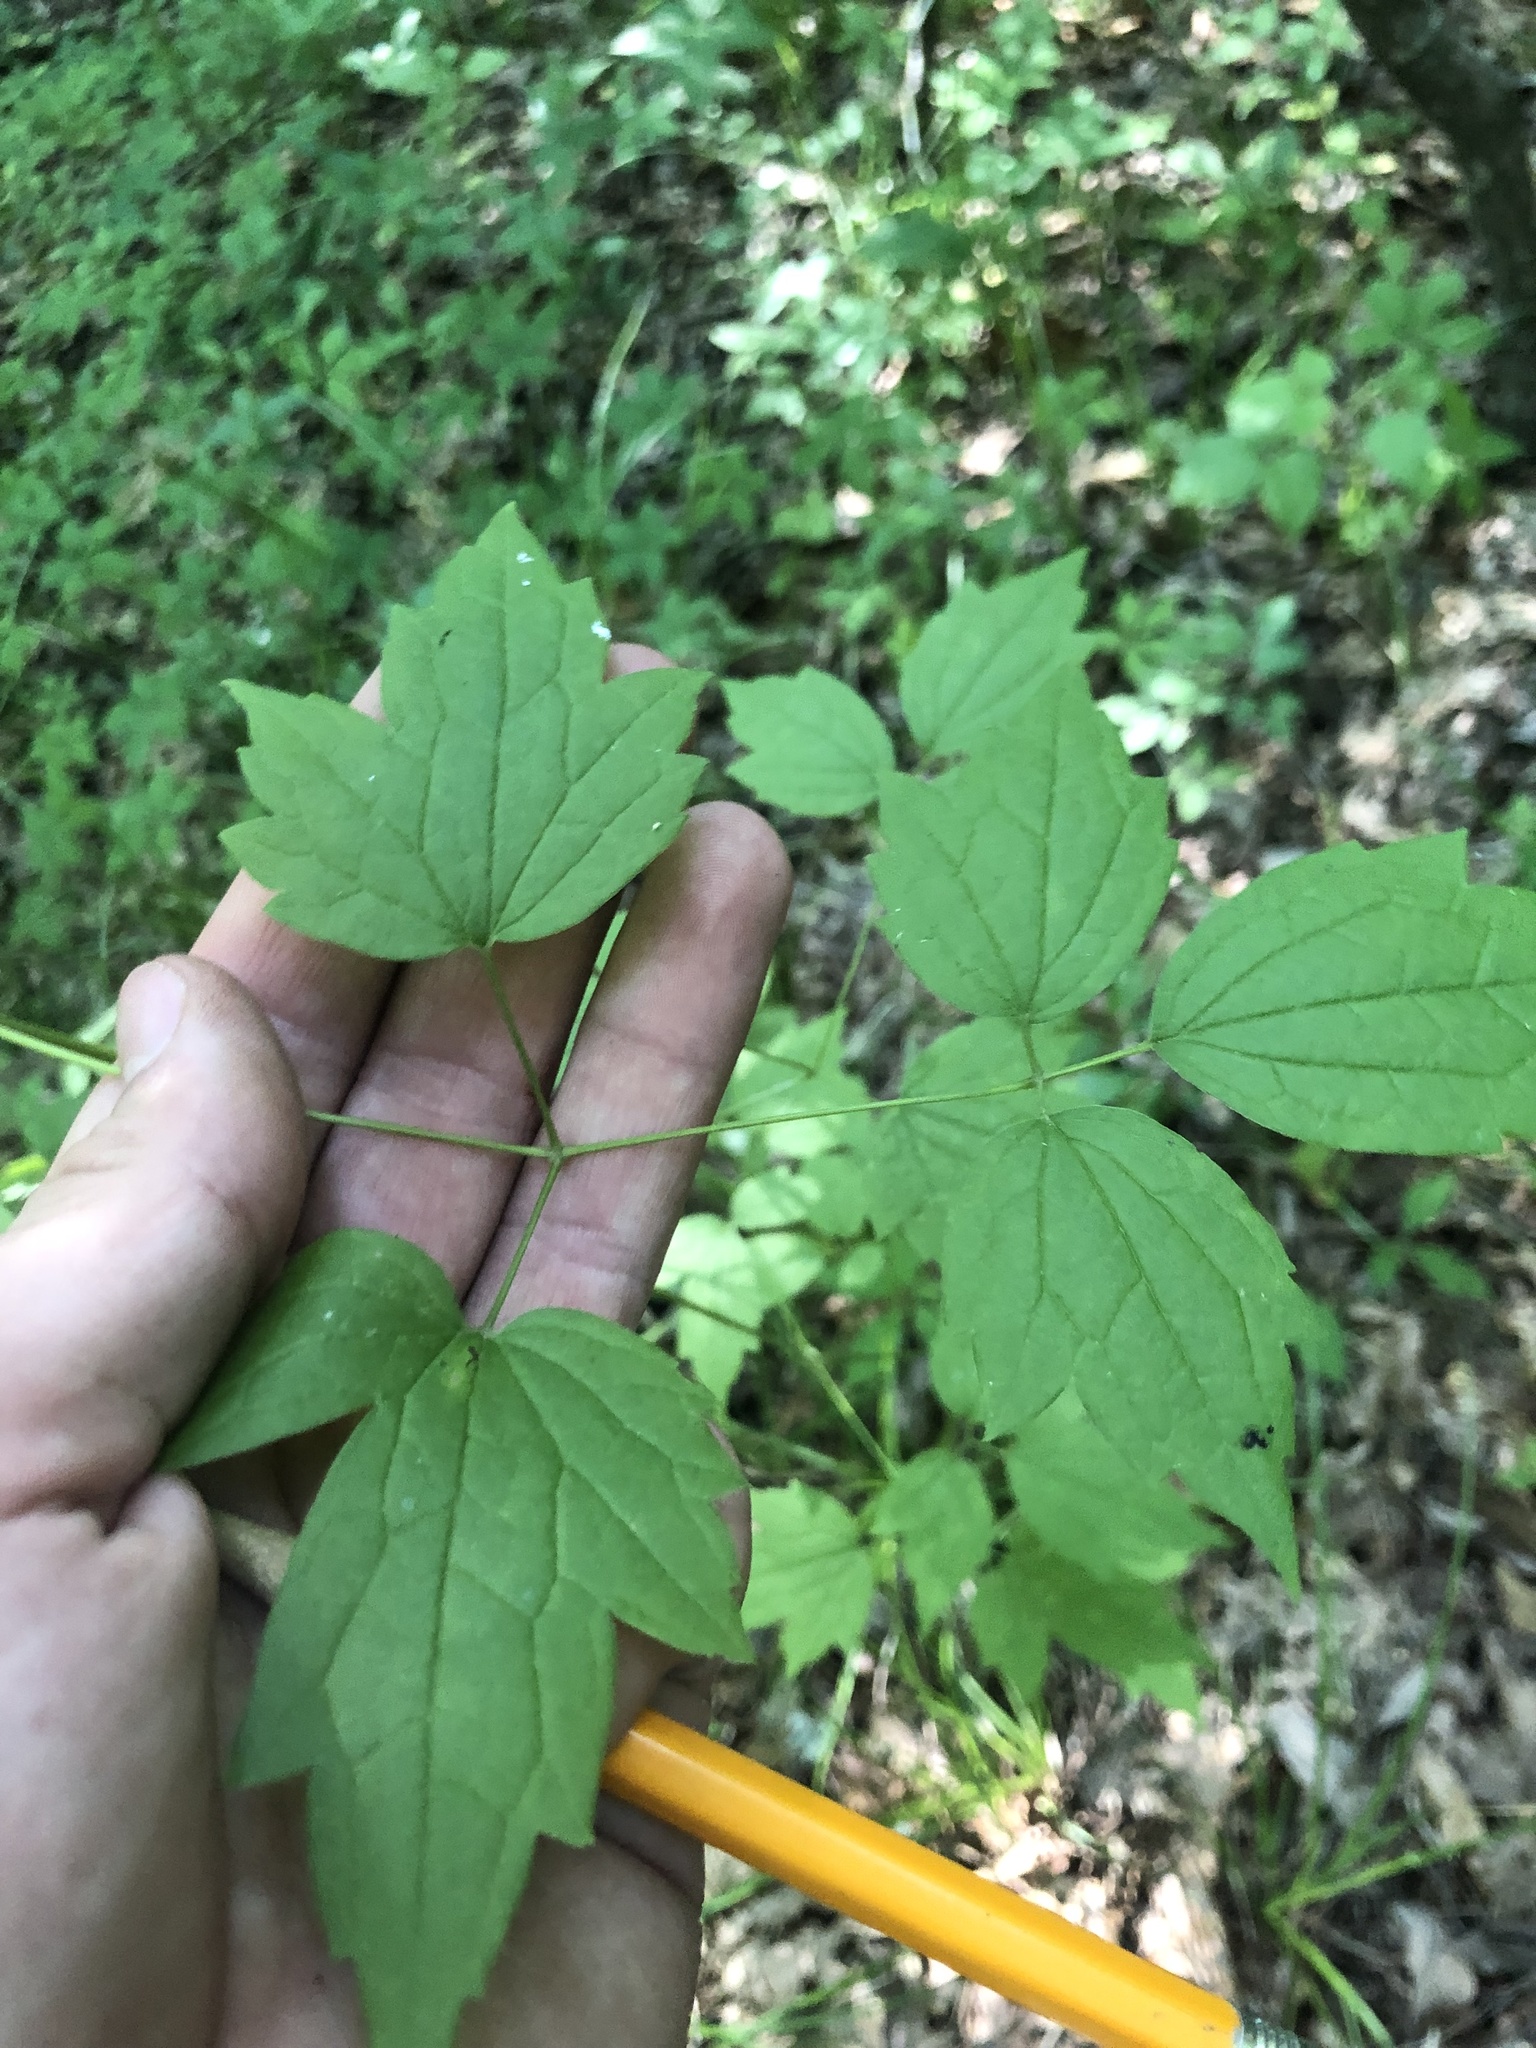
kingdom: Plantae
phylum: Tracheophyta
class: Magnoliopsida
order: Ranunculales
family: Ranunculaceae
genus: Clematis
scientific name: Clematis catesbyana
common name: Virgin's bower
